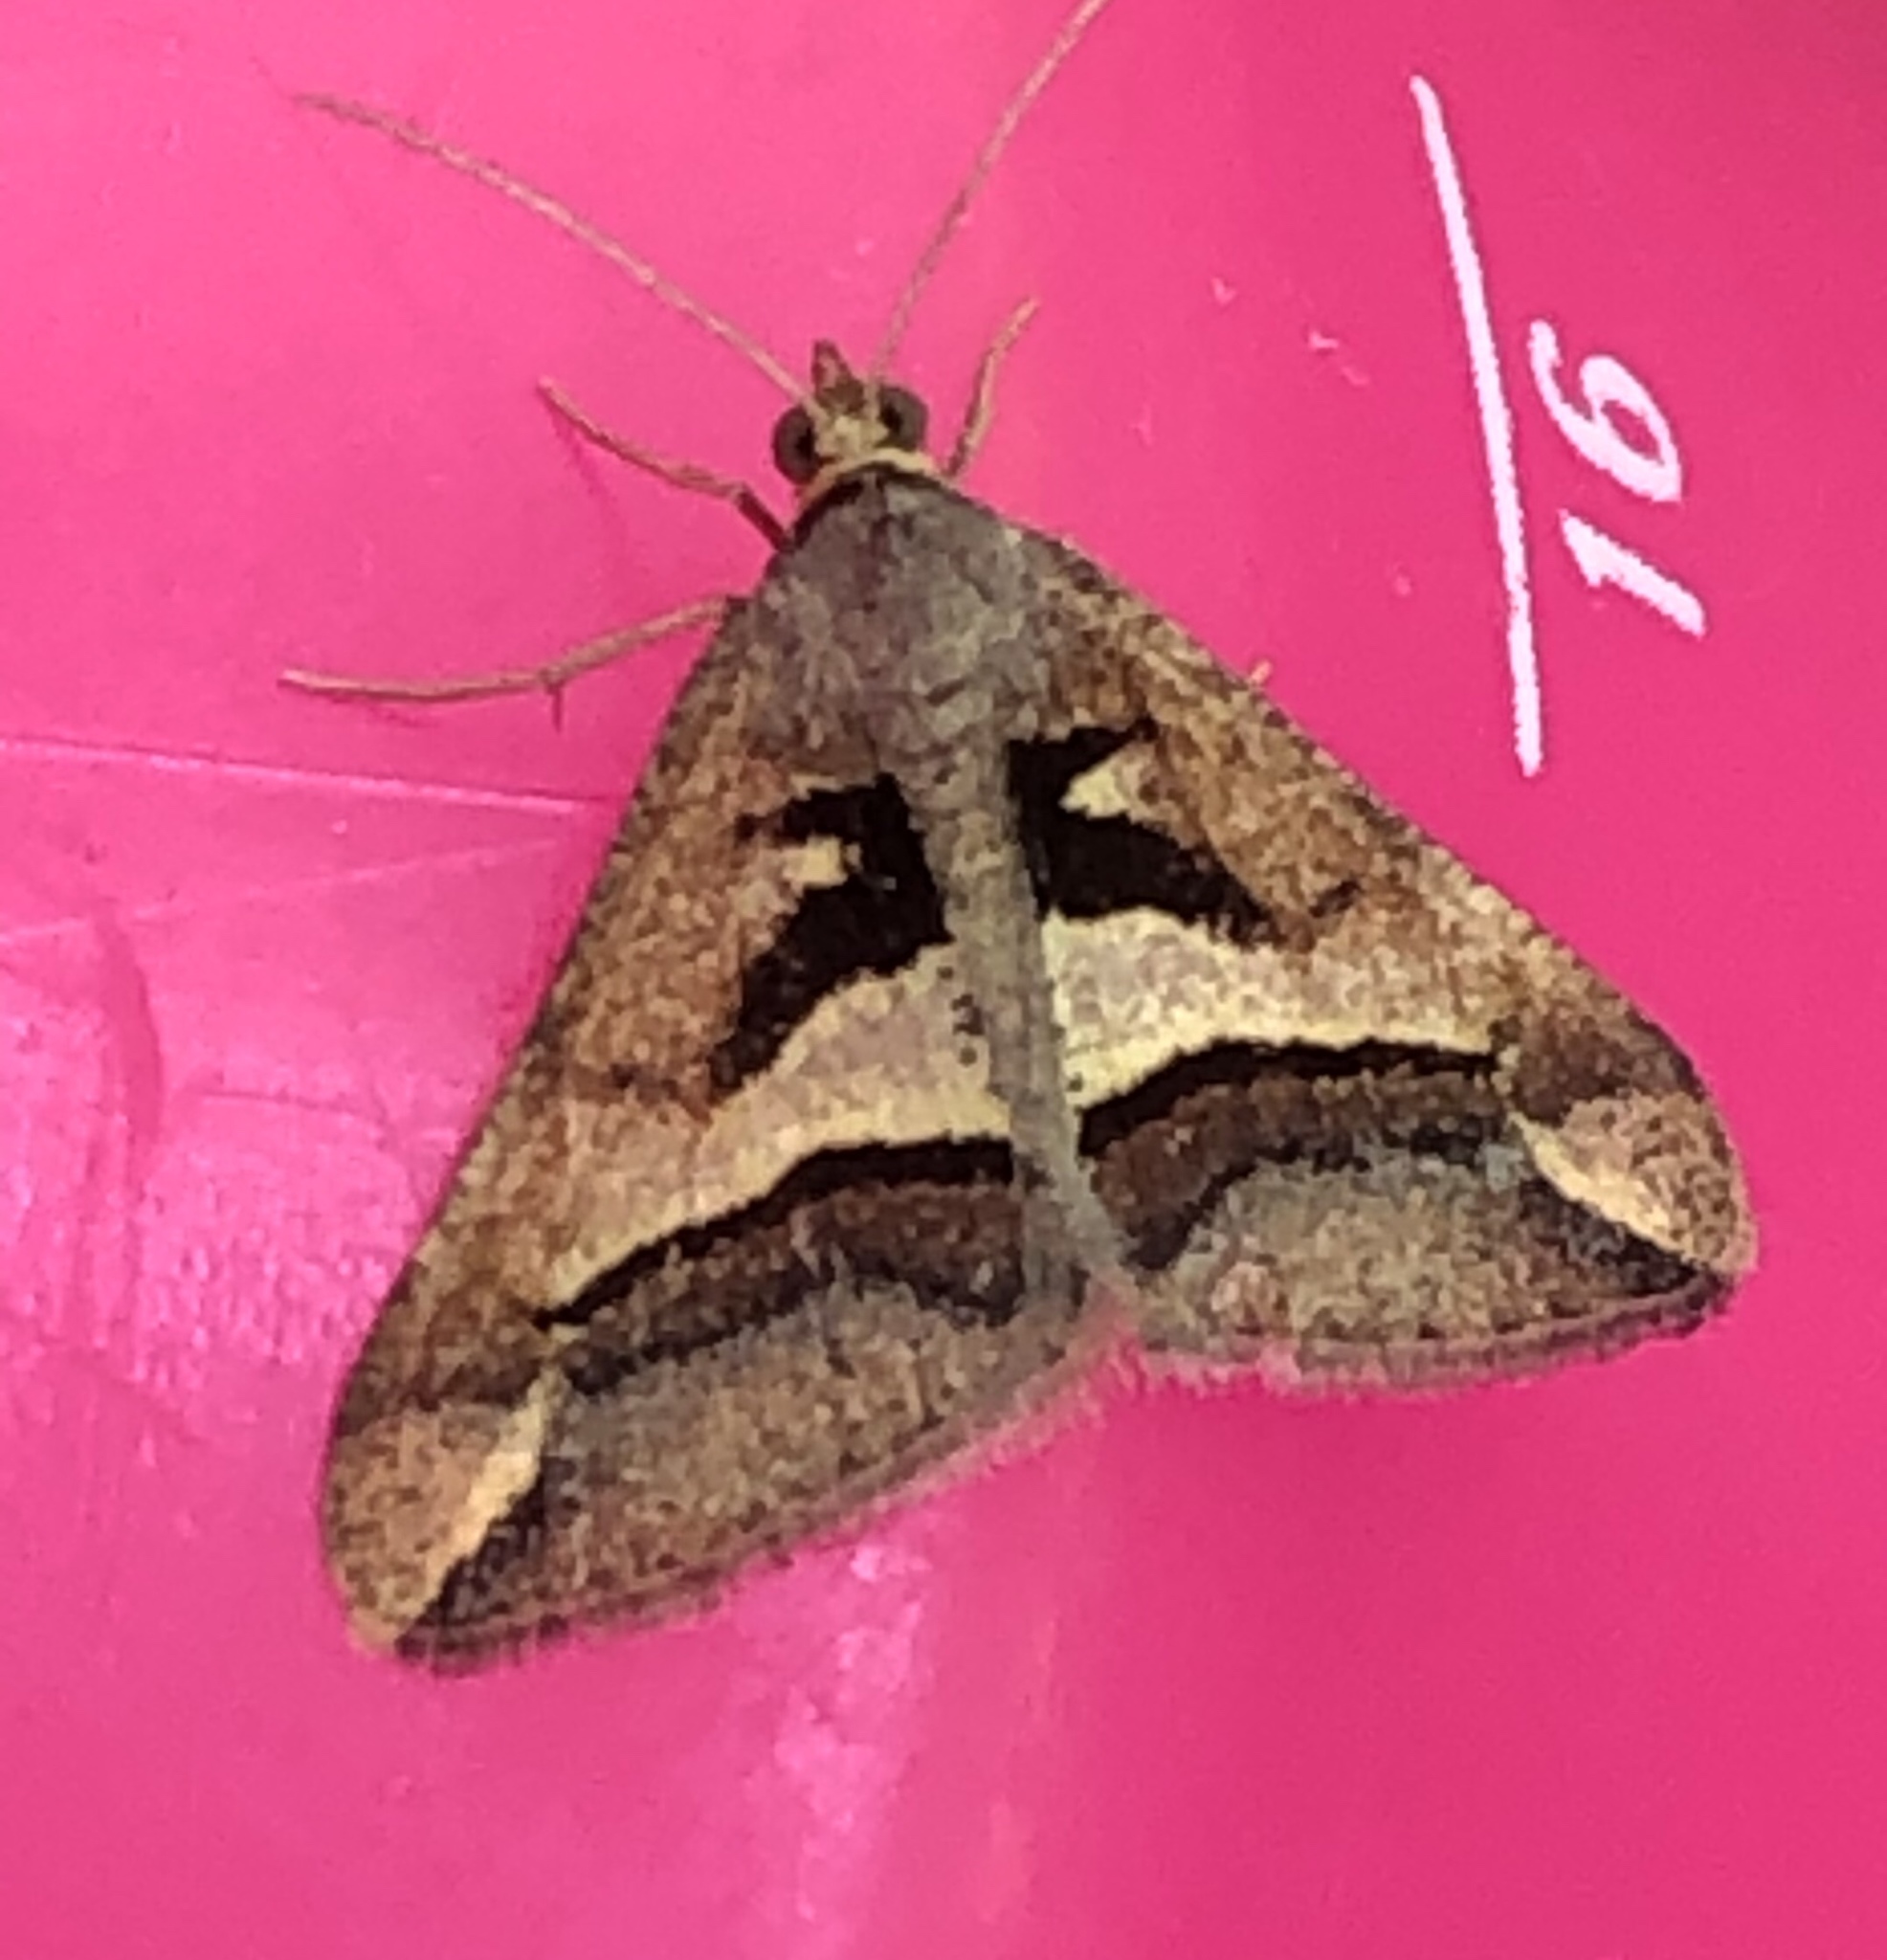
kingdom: Animalia
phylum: Arthropoda
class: Insecta
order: Lepidoptera
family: Geometridae
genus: Chiasmia
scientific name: Chiasmia observata
